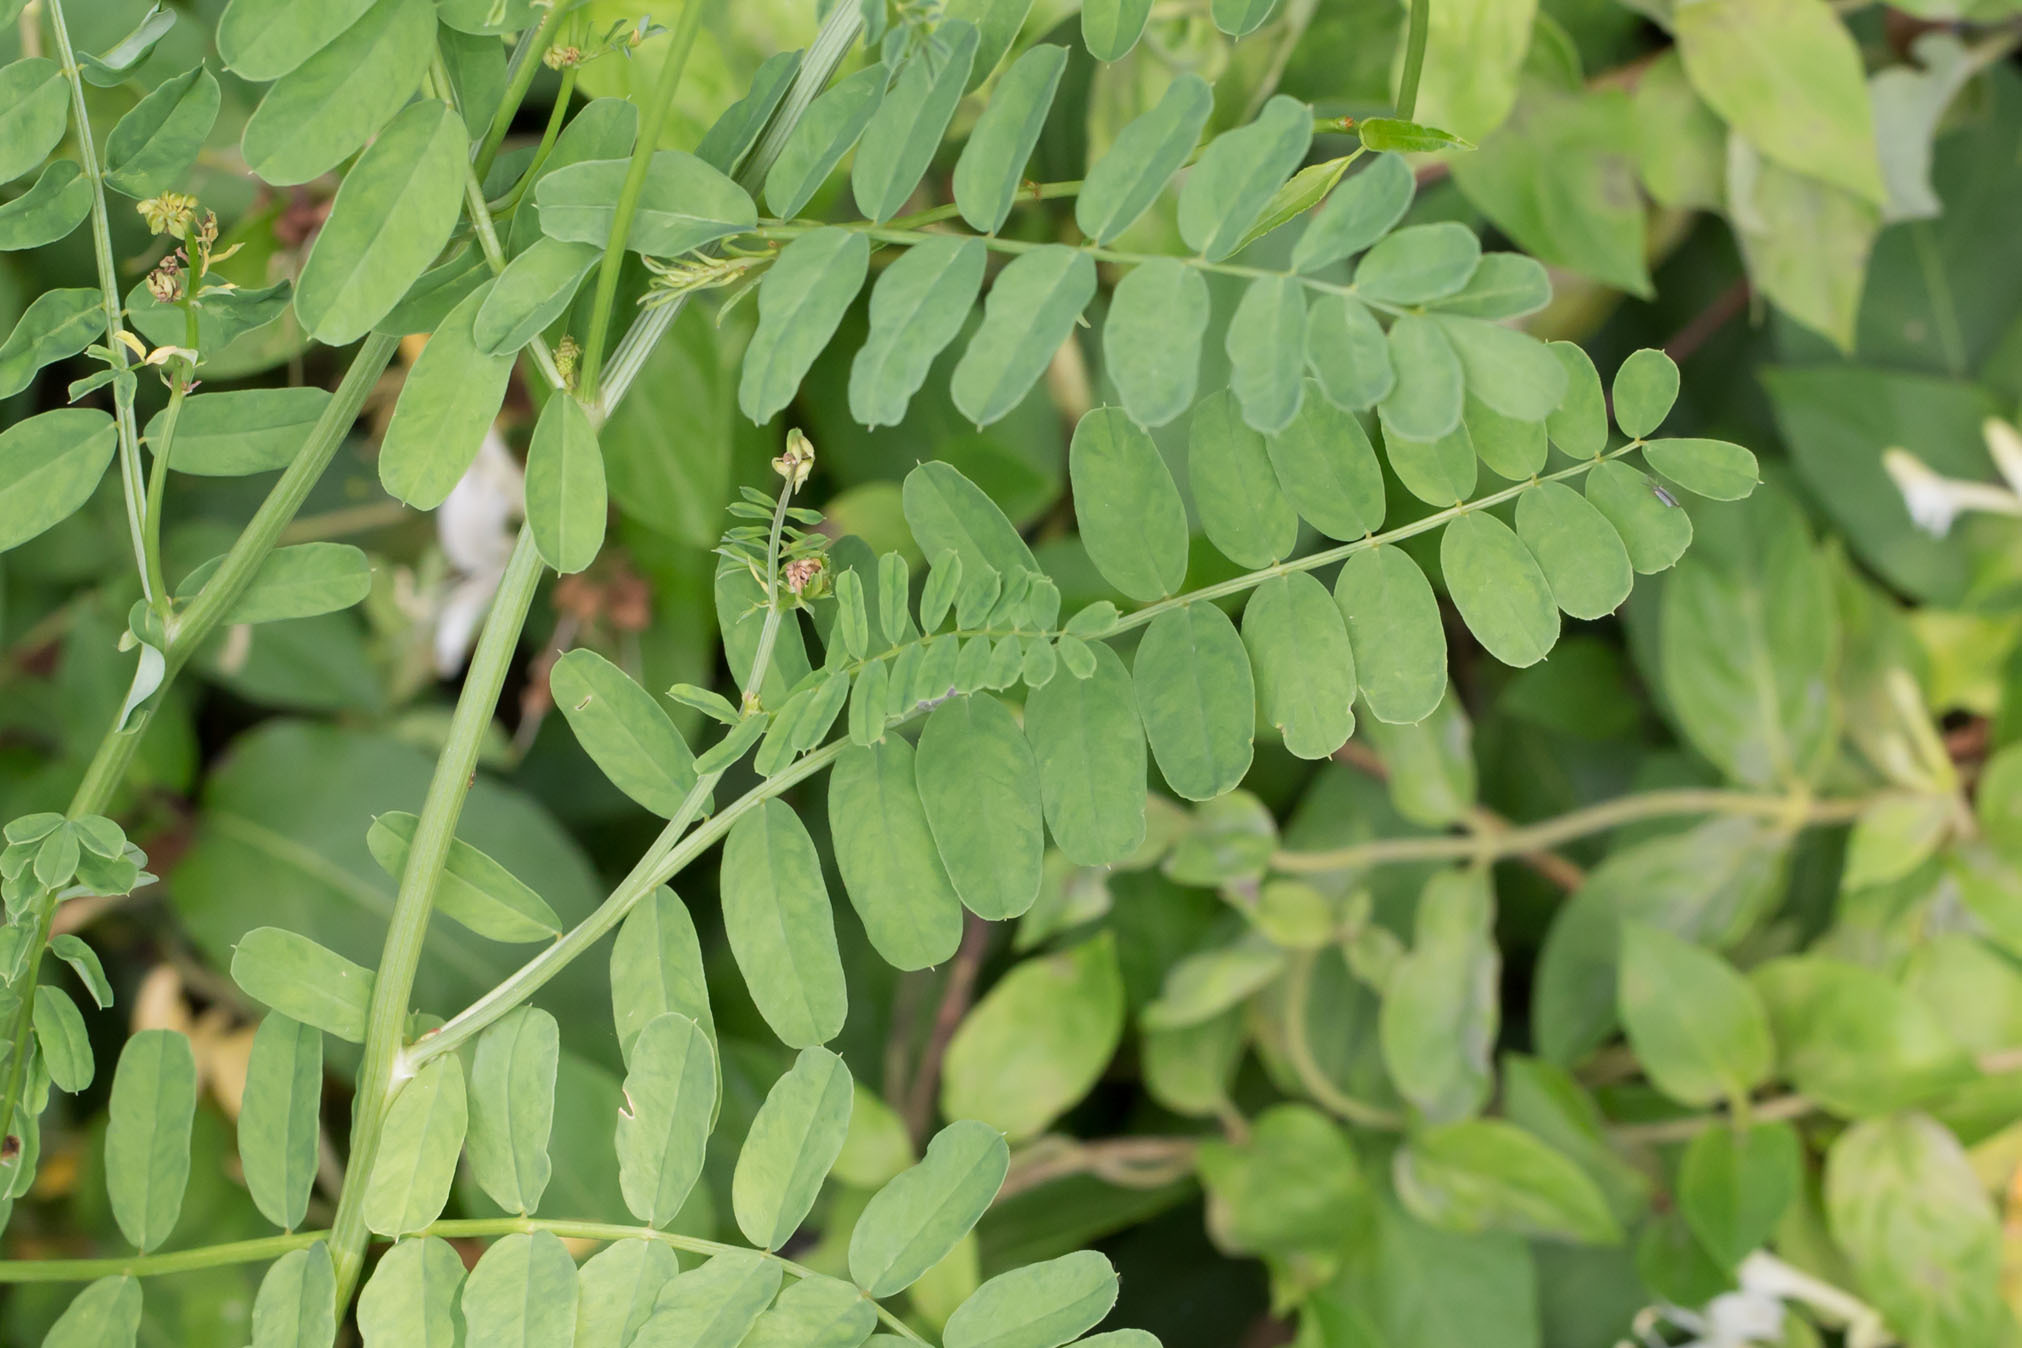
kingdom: Plantae
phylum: Tracheophyta
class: Magnoliopsida
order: Fabales
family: Fabaceae
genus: Coronilla
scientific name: Coronilla varia
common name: Crownvetch
